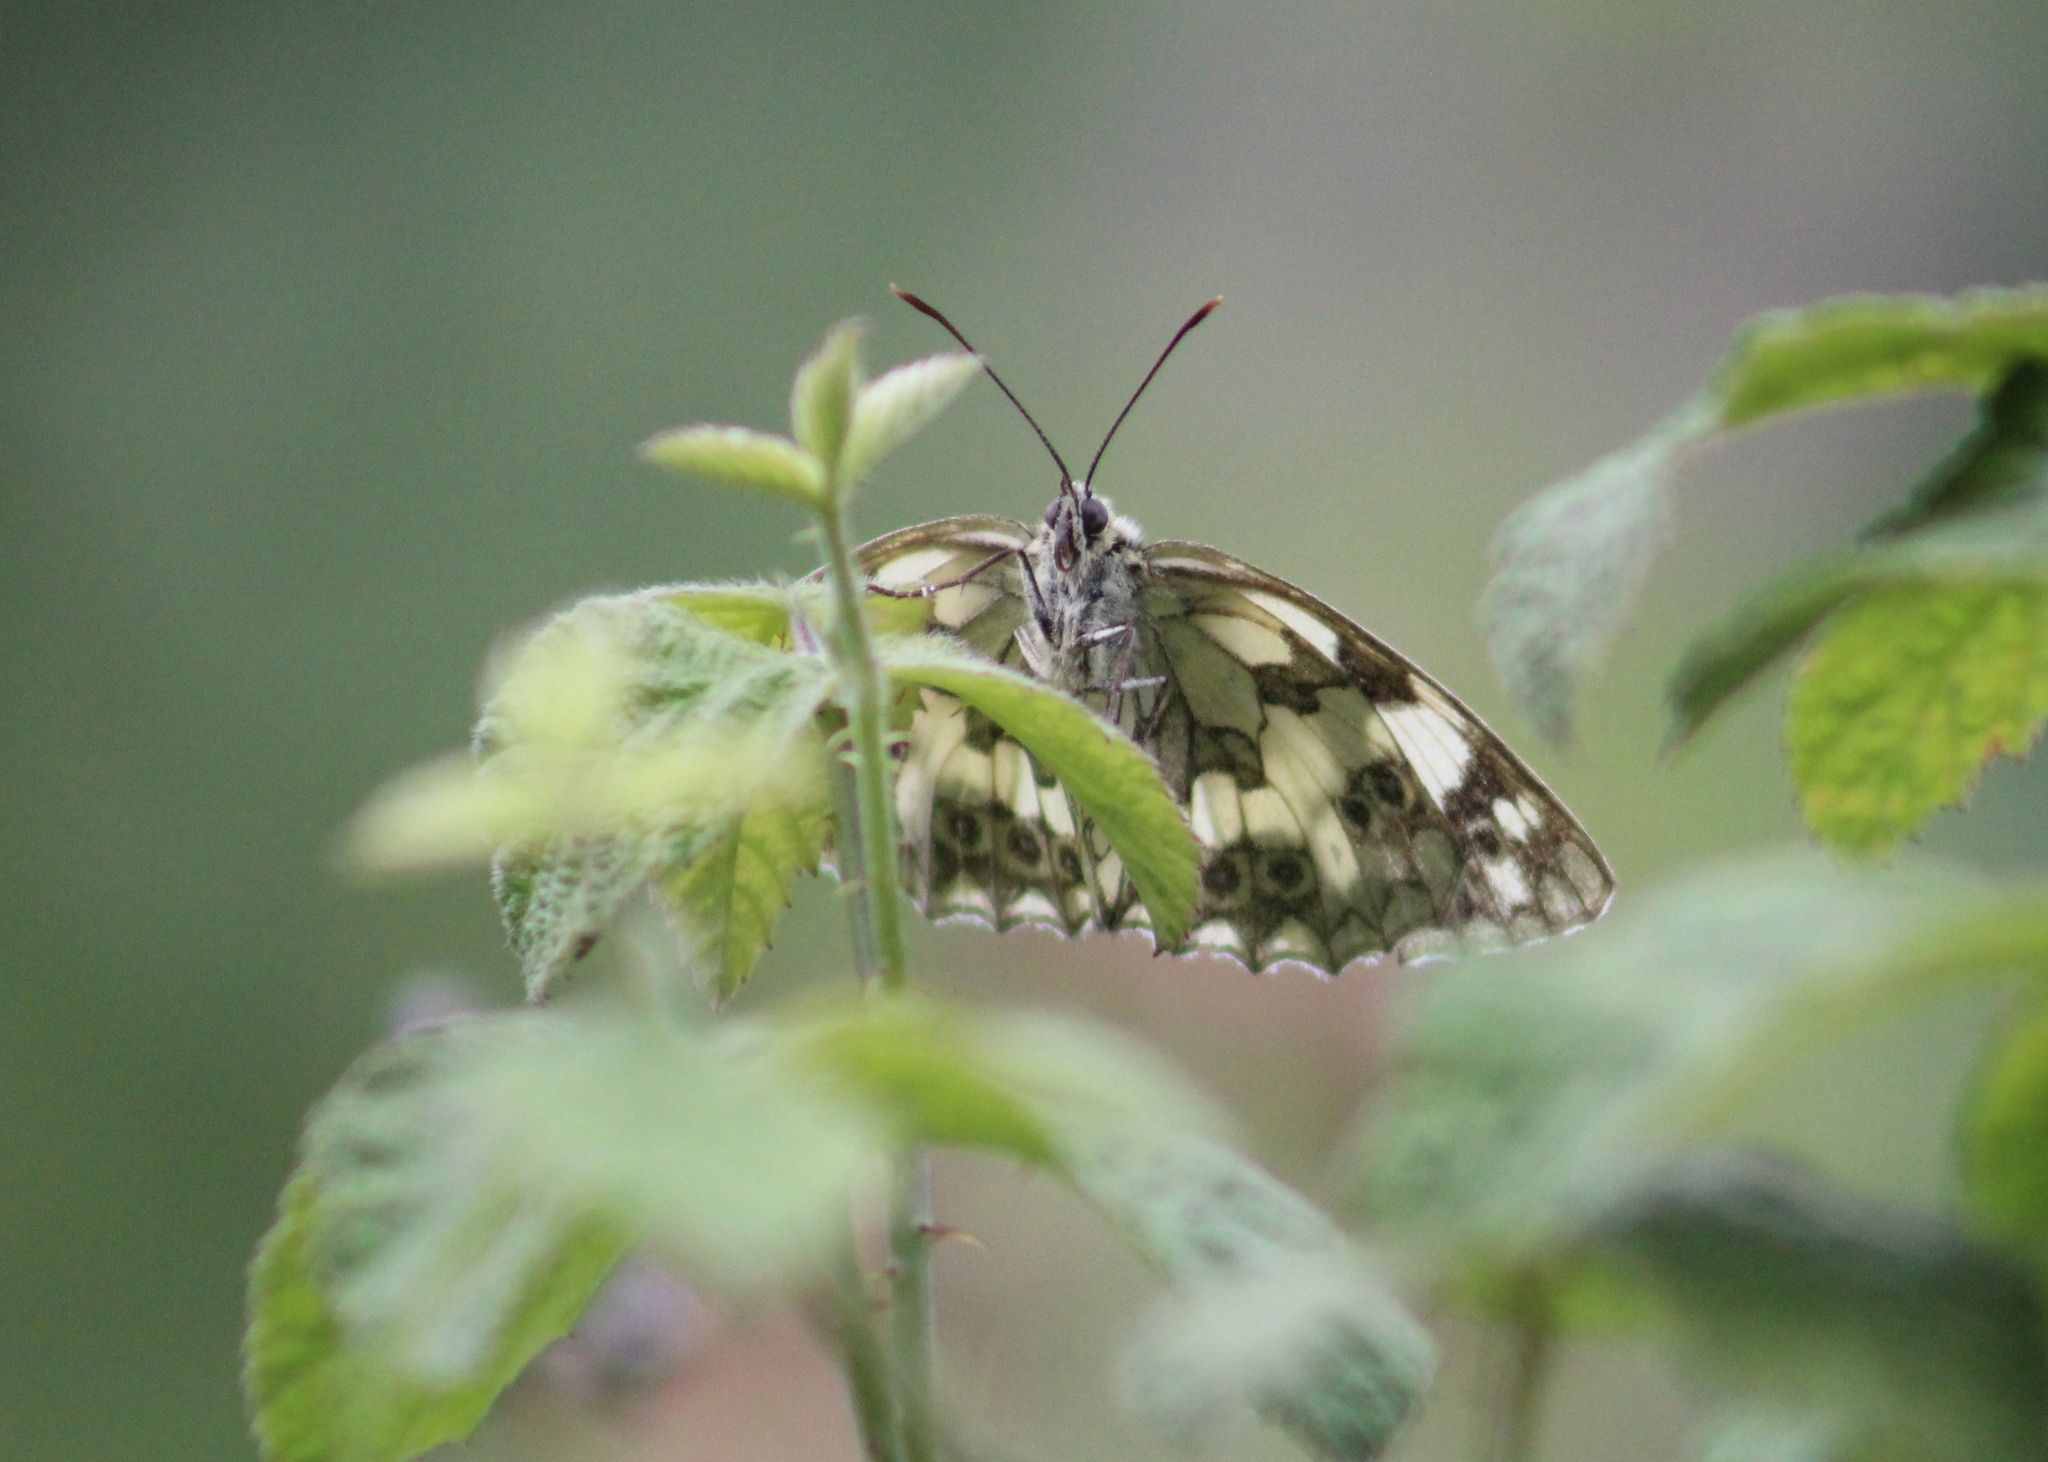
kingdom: Animalia
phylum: Arthropoda
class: Insecta
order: Lepidoptera
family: Nymphalidae
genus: Melanargia
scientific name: Melanargia galathea
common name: Marbled white
